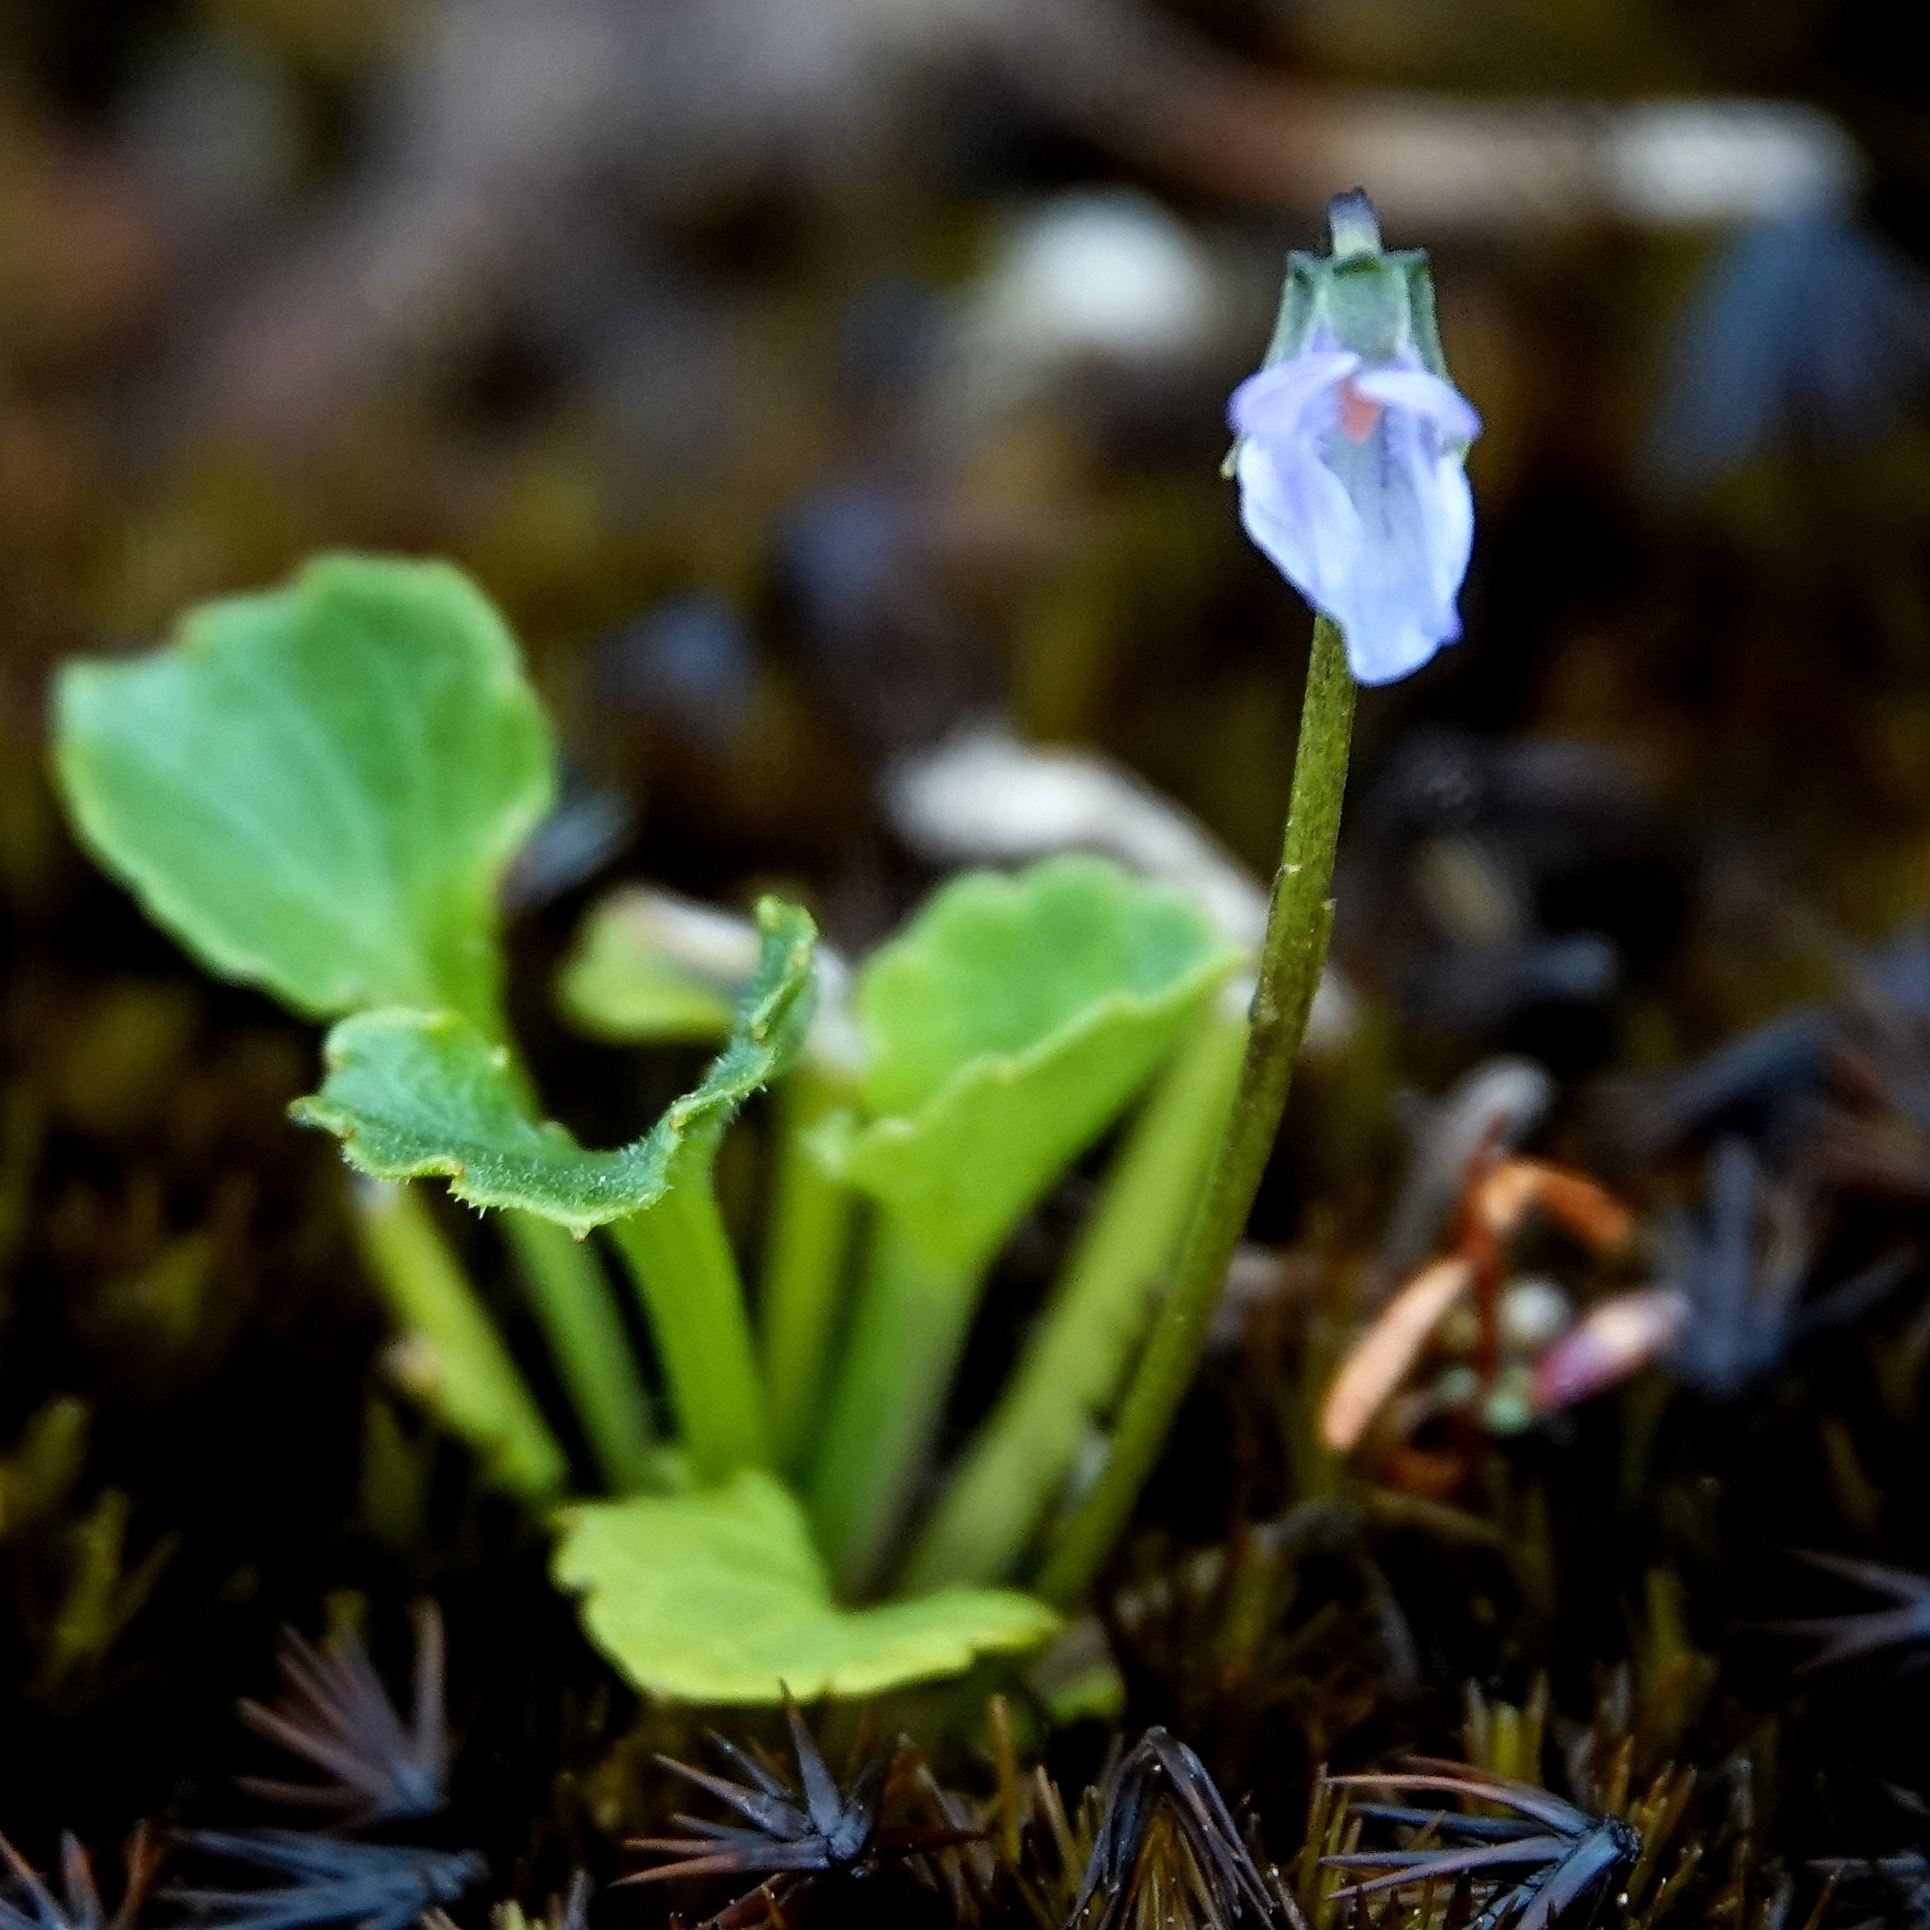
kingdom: Plantae
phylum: Tracheophyta
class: Magnoliopsida
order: Malpighiales
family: Violaceae
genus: Viola
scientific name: Viola silicestris
